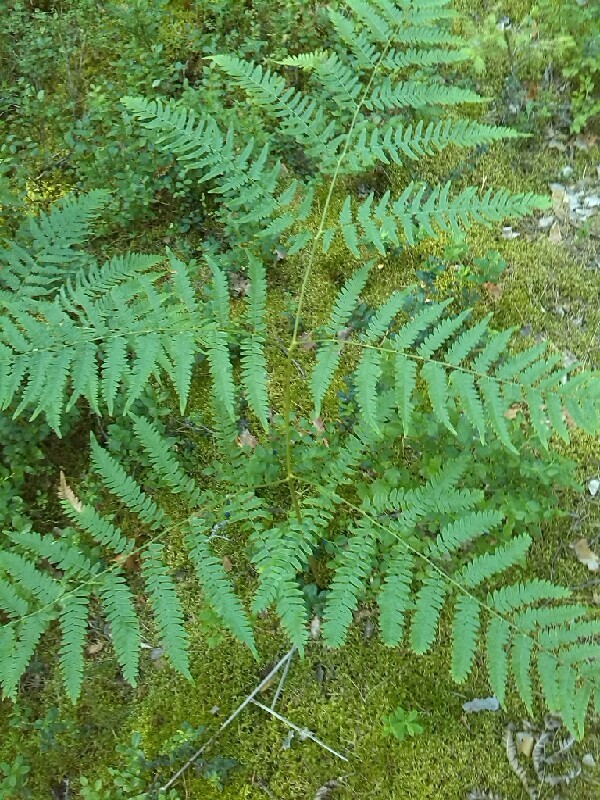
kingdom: Plantae
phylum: Tracheophyta
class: Polypodiopsida
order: Polypodiales
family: Dennstaedtiaceae
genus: Pteridium
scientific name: Pteridium aquilinum
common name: Bracken
